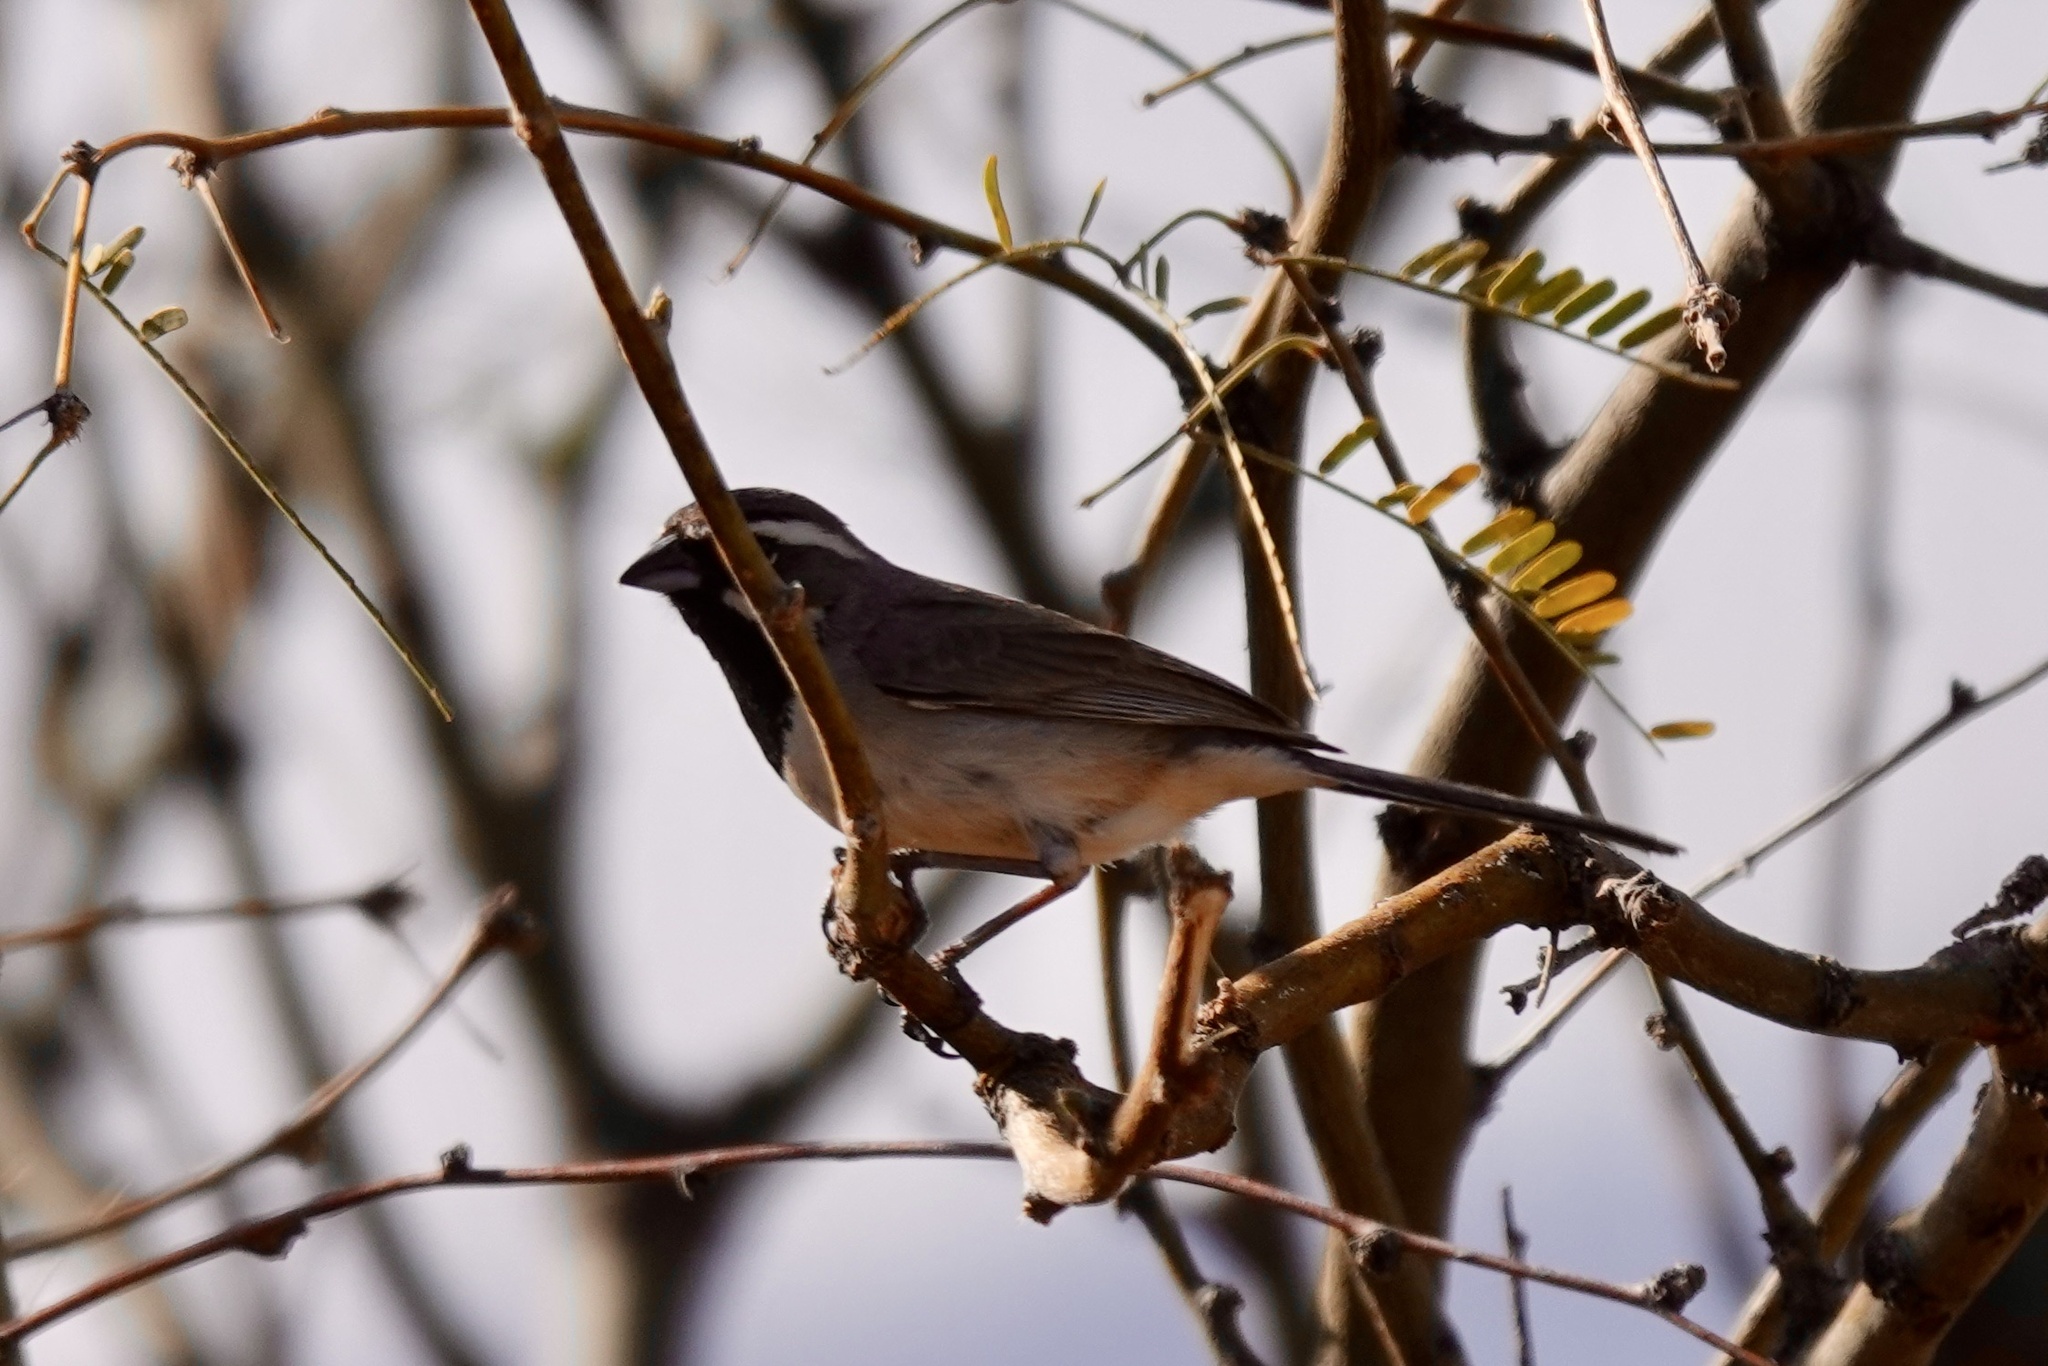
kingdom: Animalia
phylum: Chordata
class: Aves
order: Passeriformes
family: Passerellidae
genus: Amphispiza
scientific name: Amphispiza bilineata
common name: Black-throated sparrow
